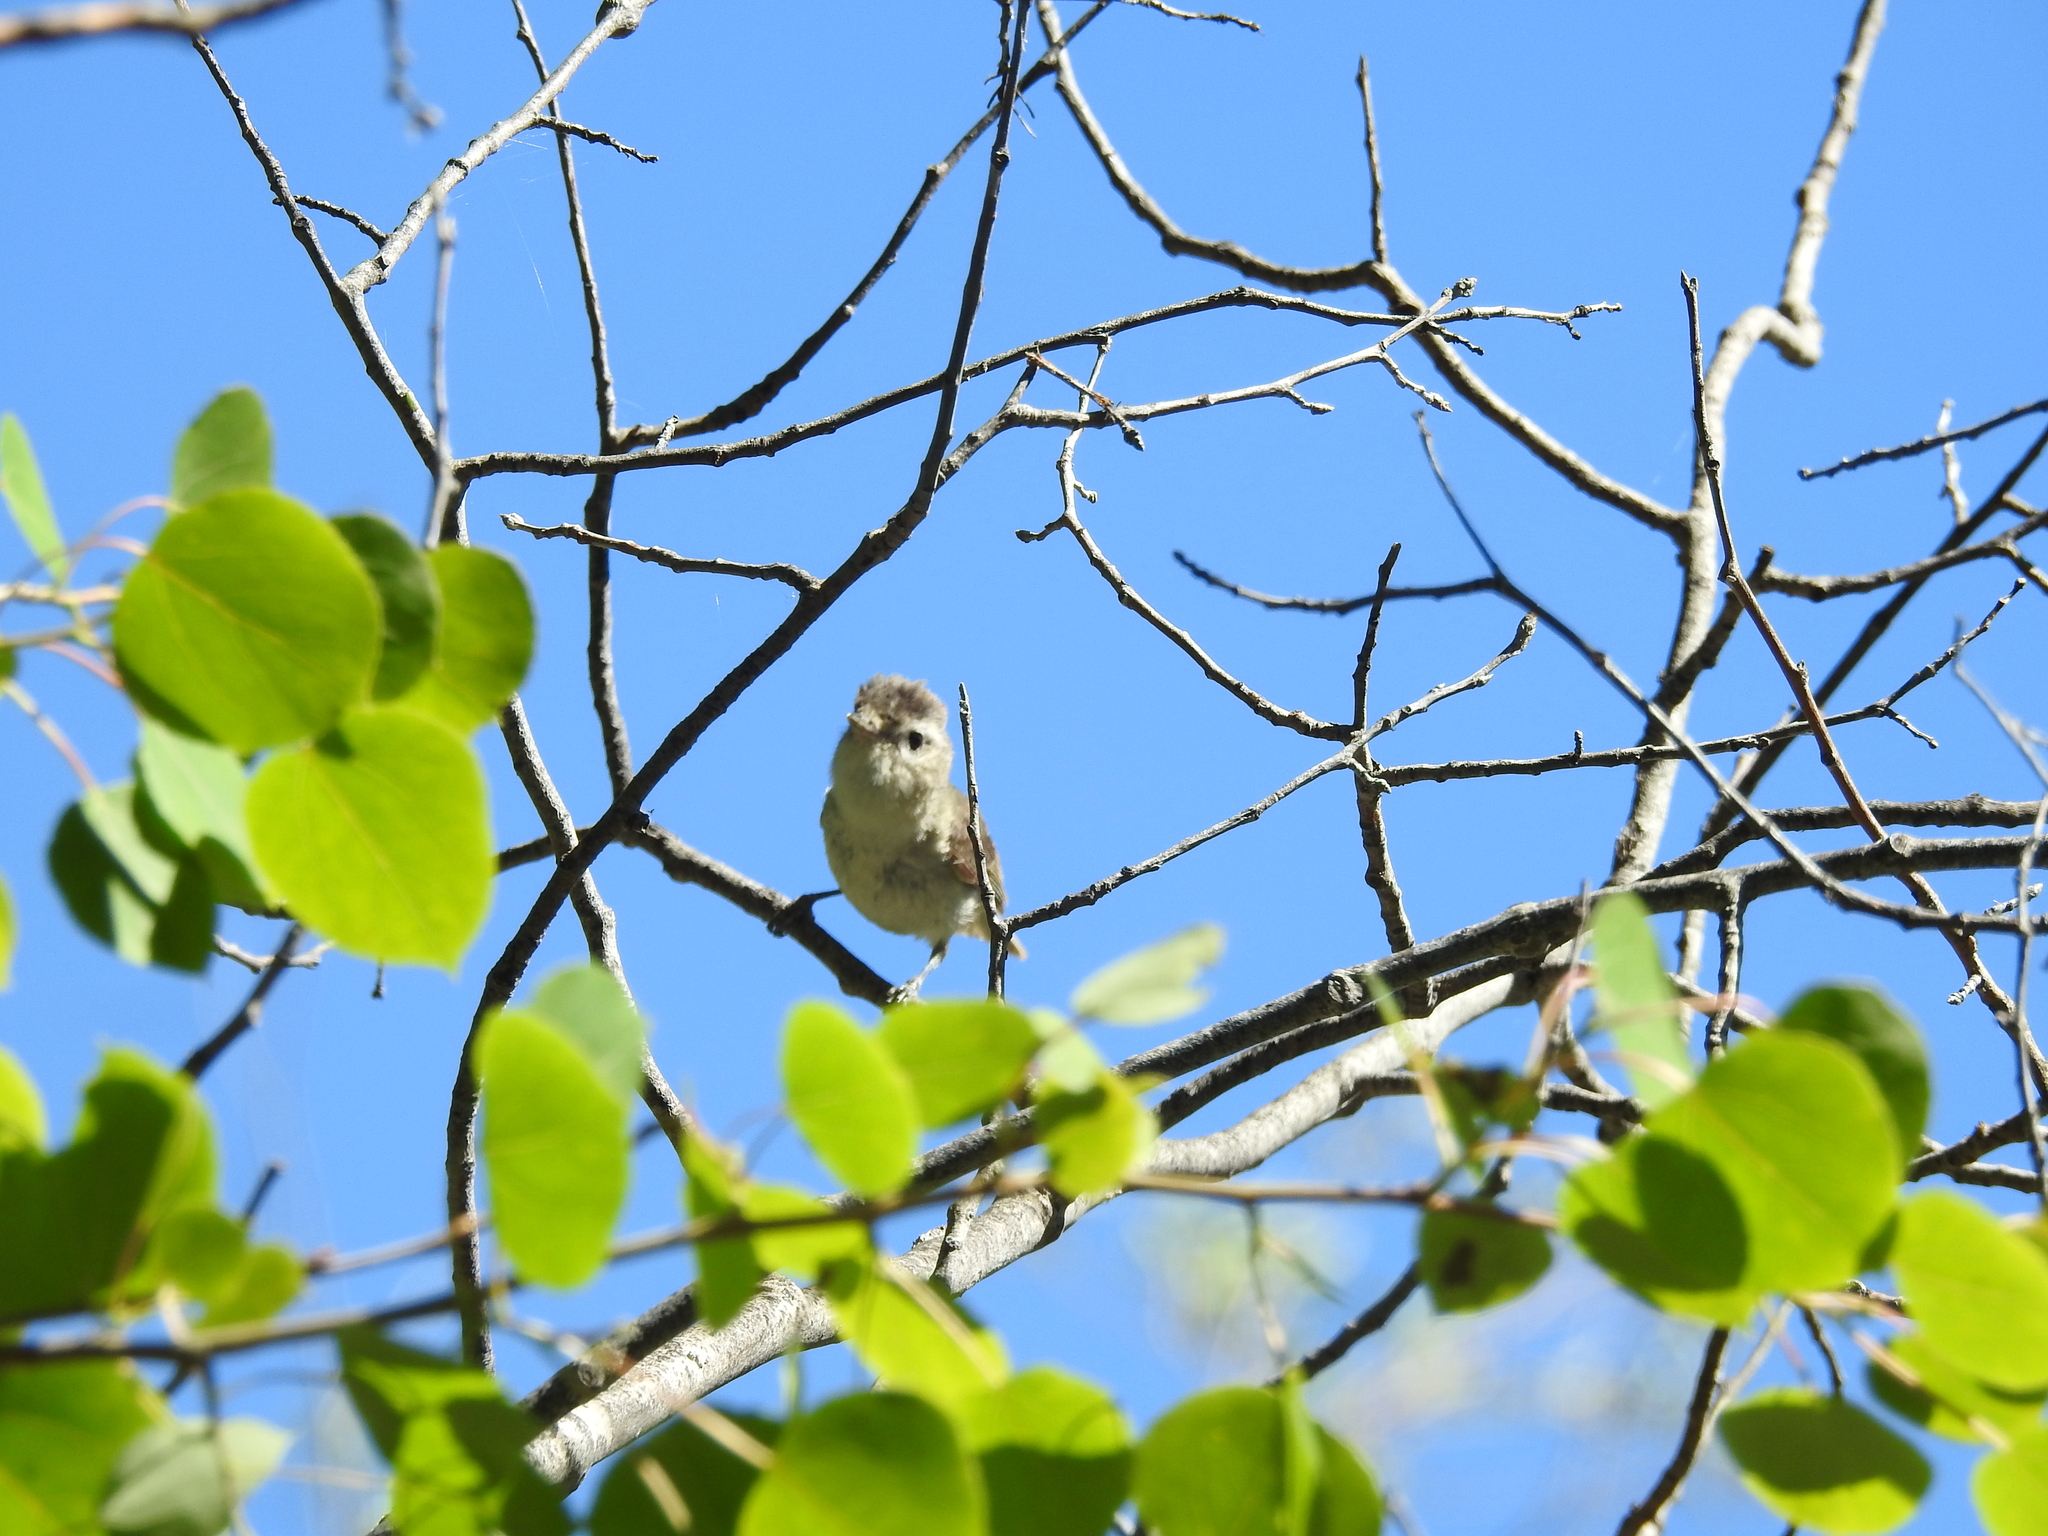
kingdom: Animalia
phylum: Chordata
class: Aves
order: Passeriformes
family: Vireonidae
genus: Vireo
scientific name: Vireo gilvus
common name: Warbling vireo
